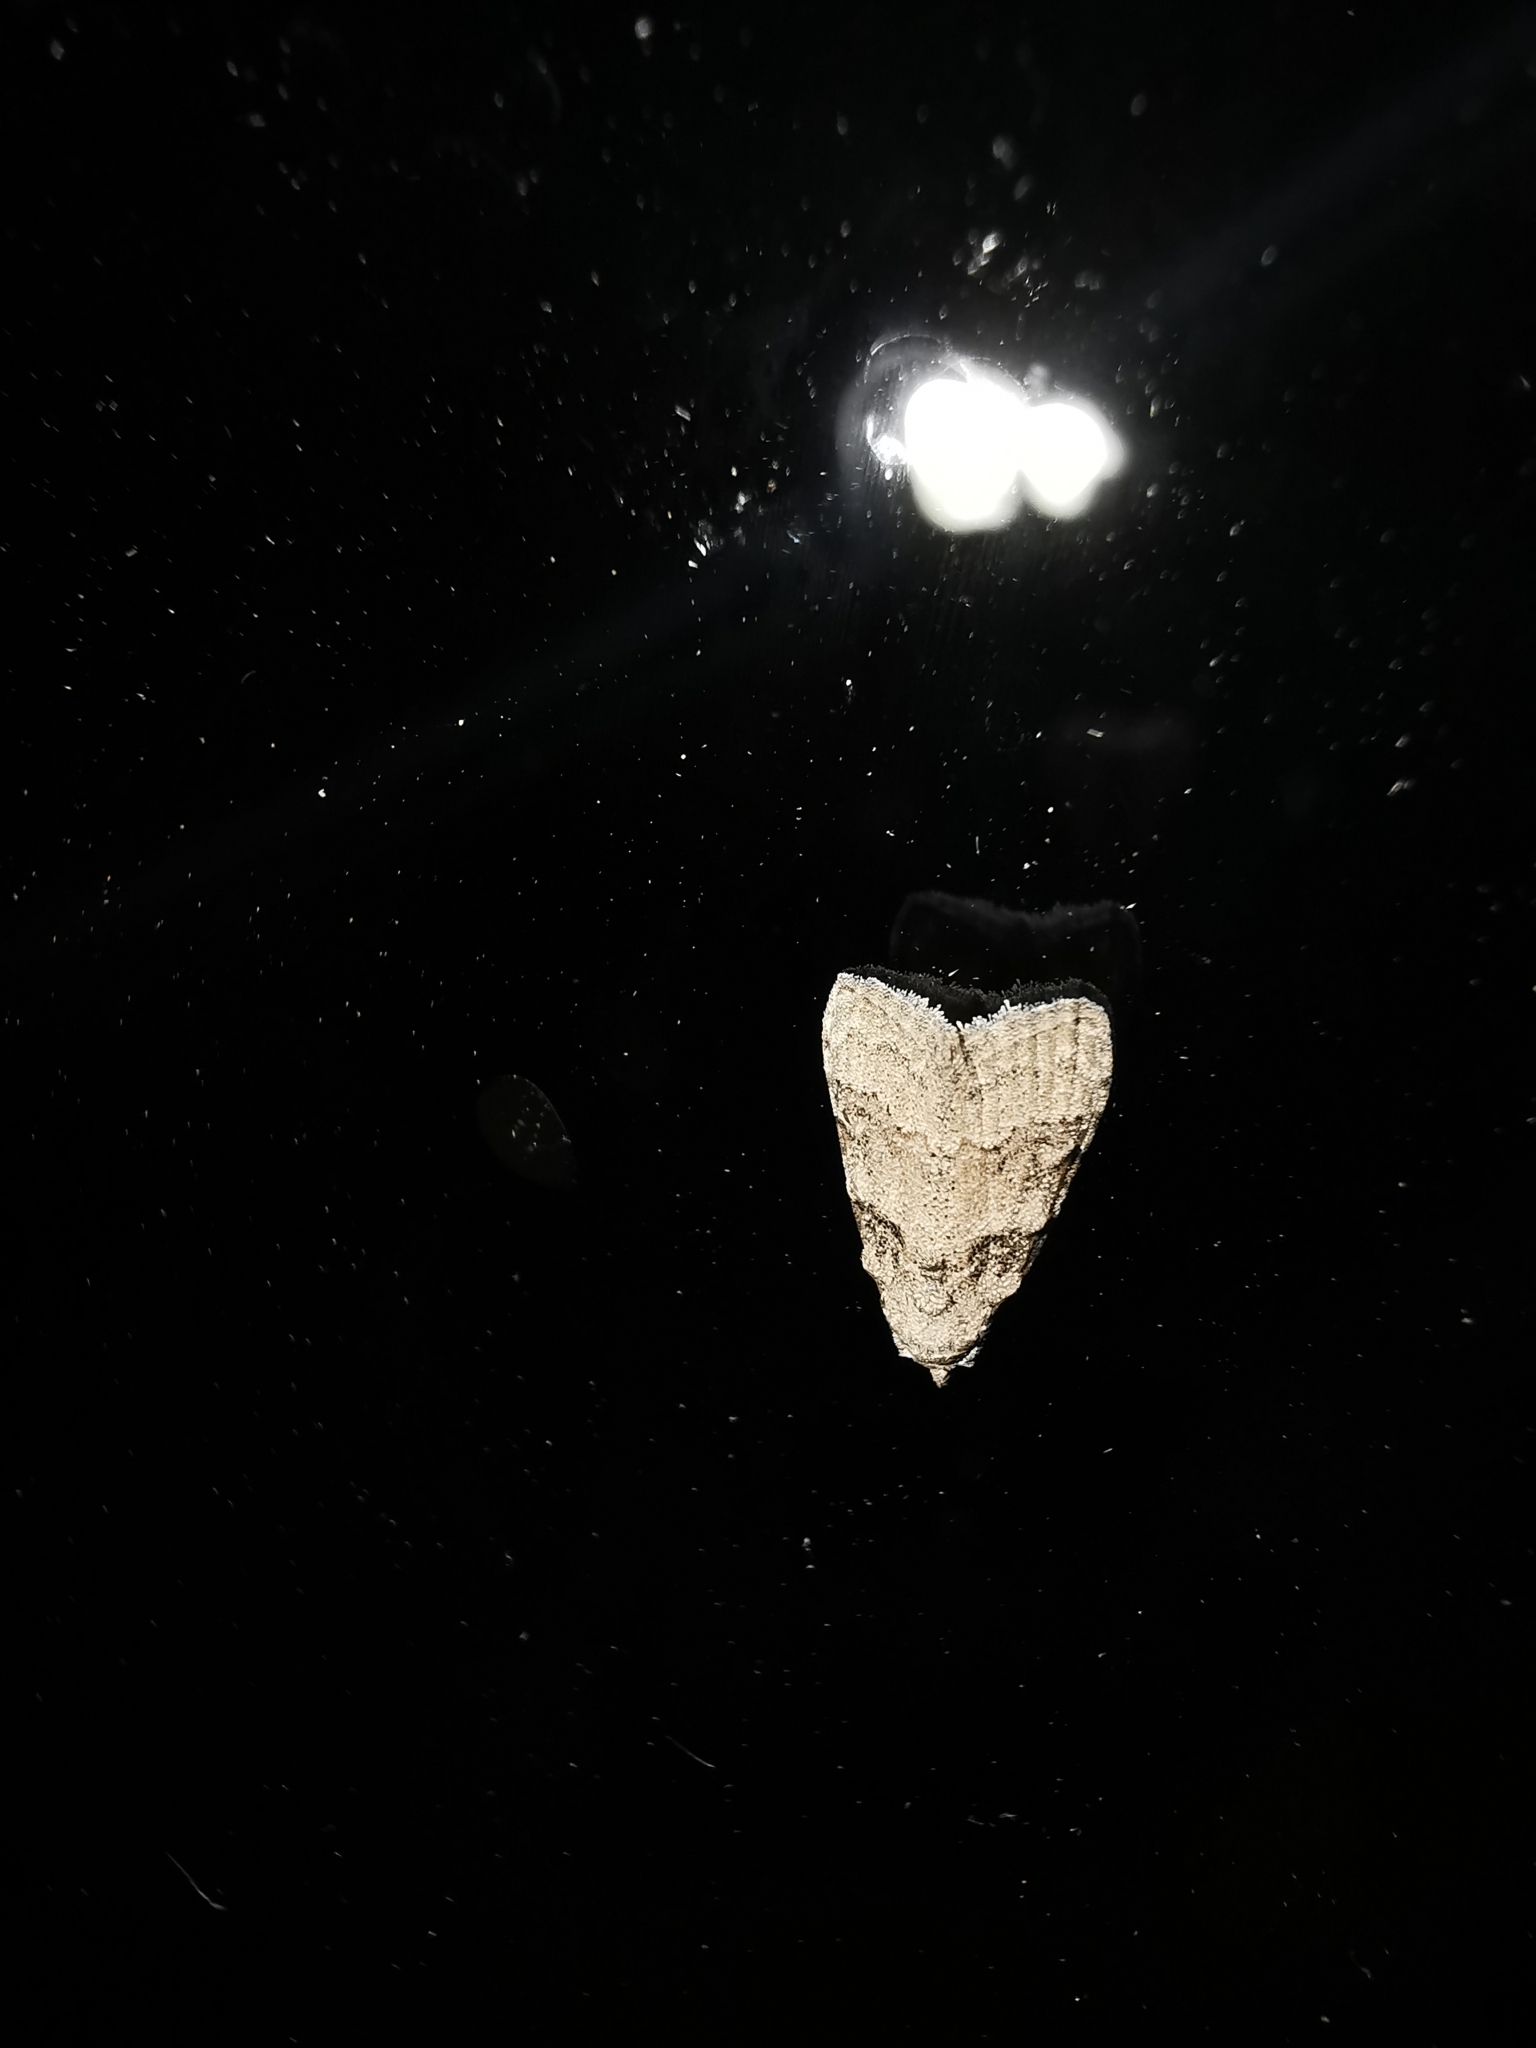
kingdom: Animalia
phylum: Arthropoda
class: Insecta
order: Lepidoptera
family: Nolidae
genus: Nola
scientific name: Nola harouni
